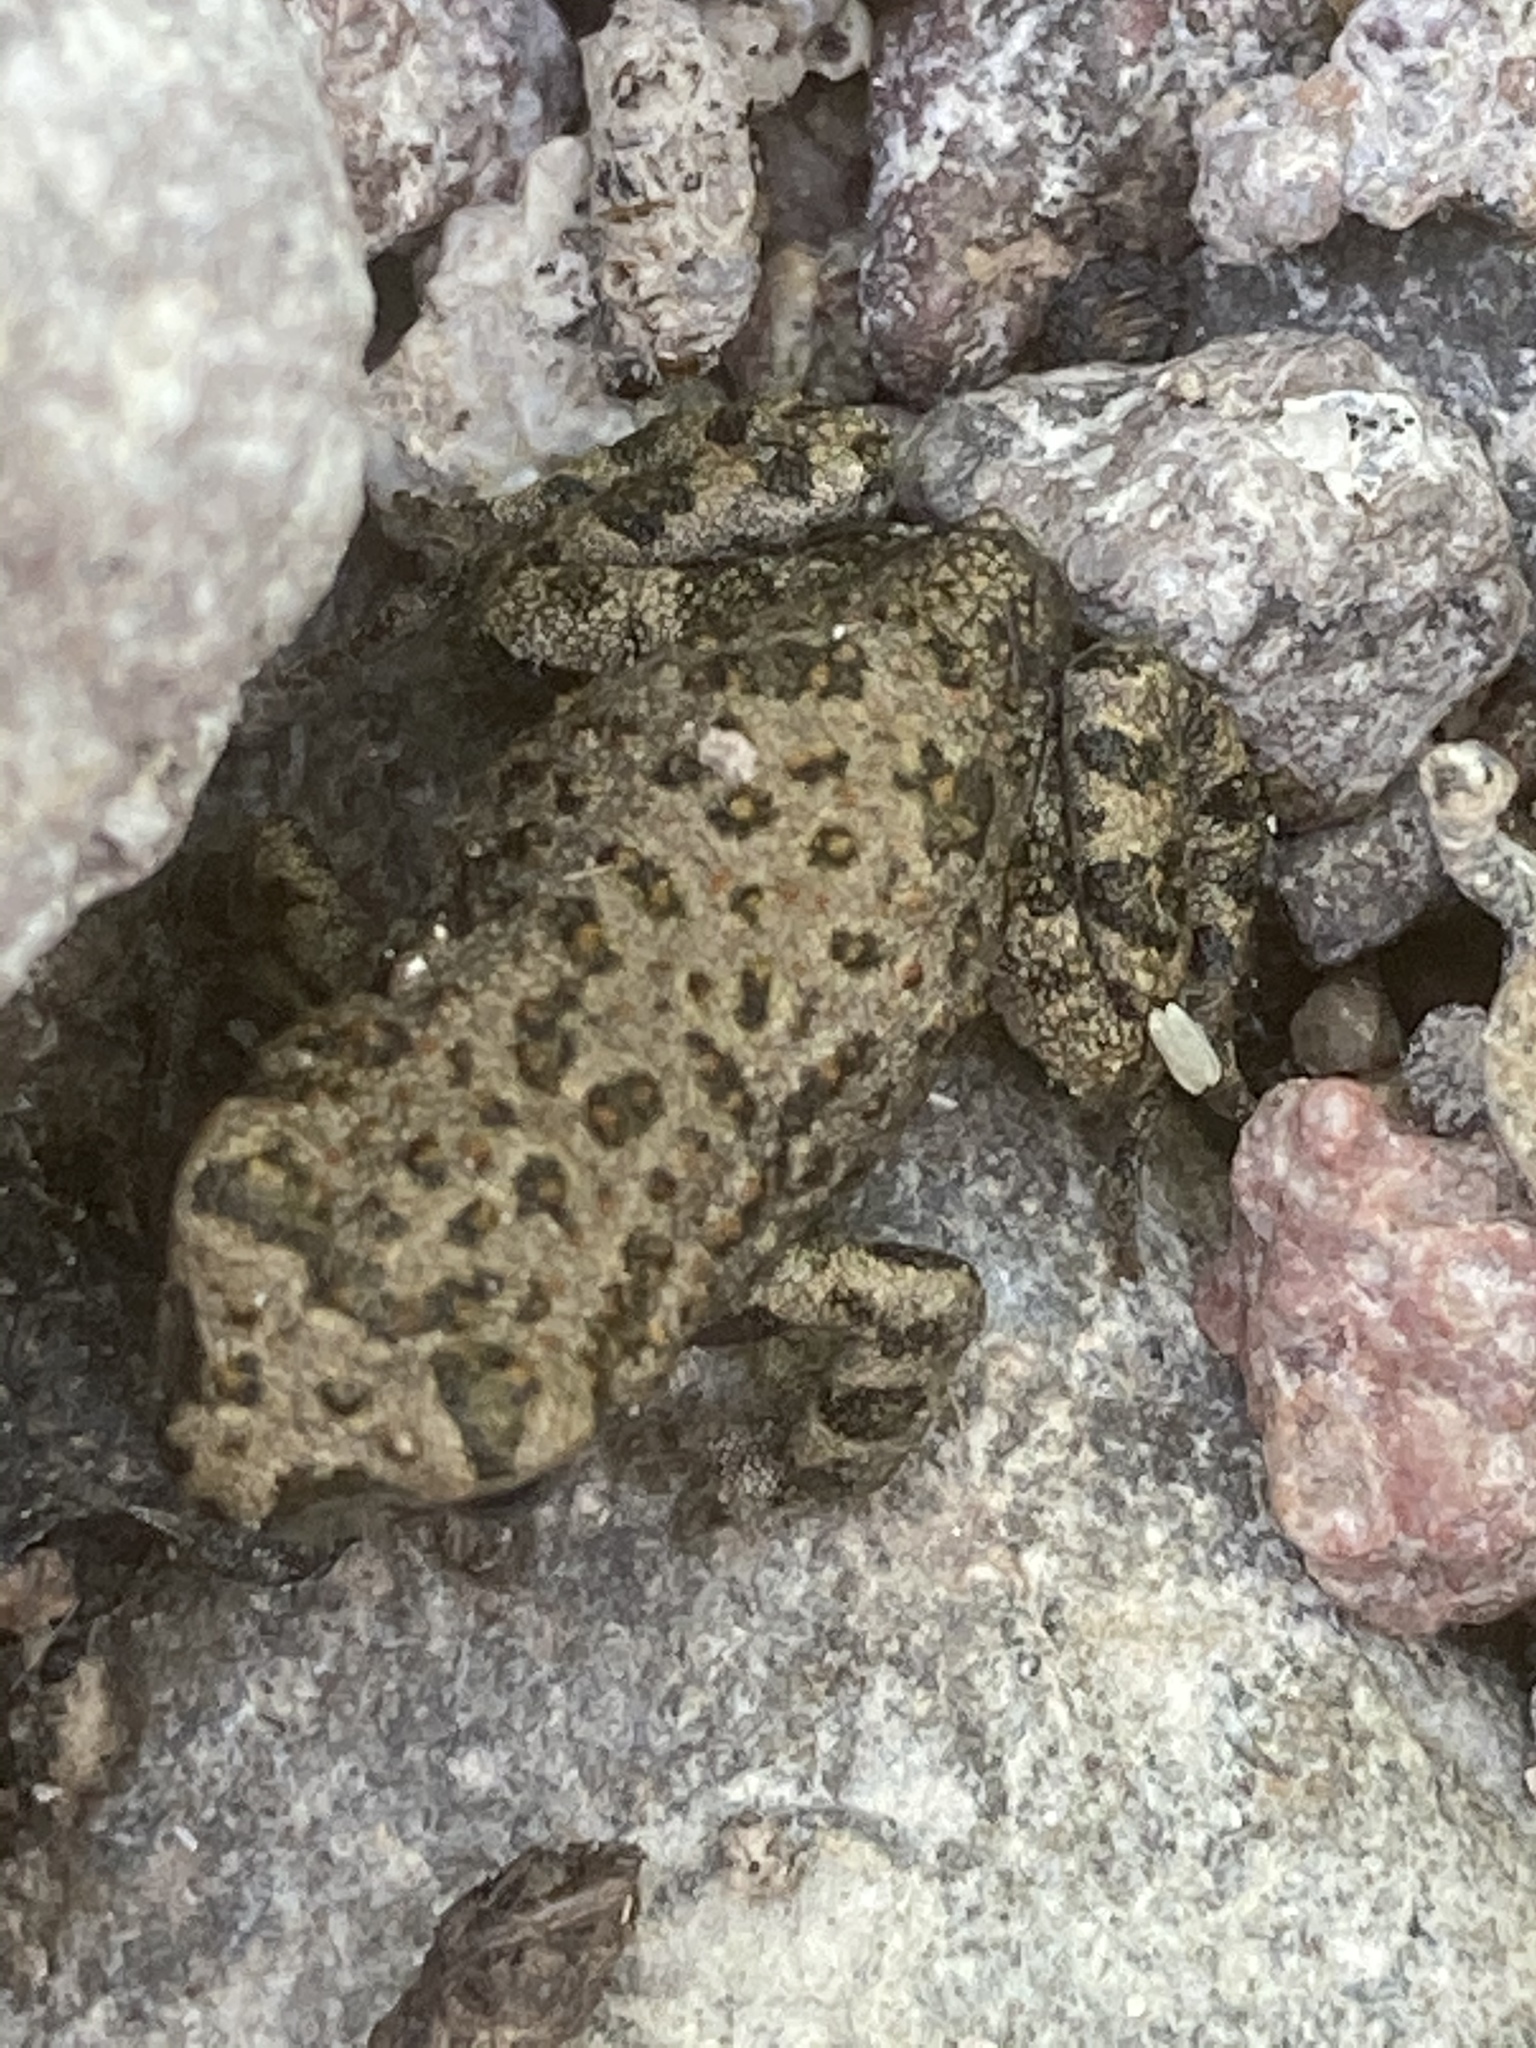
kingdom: Animalia
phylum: Chordata
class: Amphibia
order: Anura
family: Bufonidae
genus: Bufotes
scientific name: Bufotes viridis
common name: European green toad
